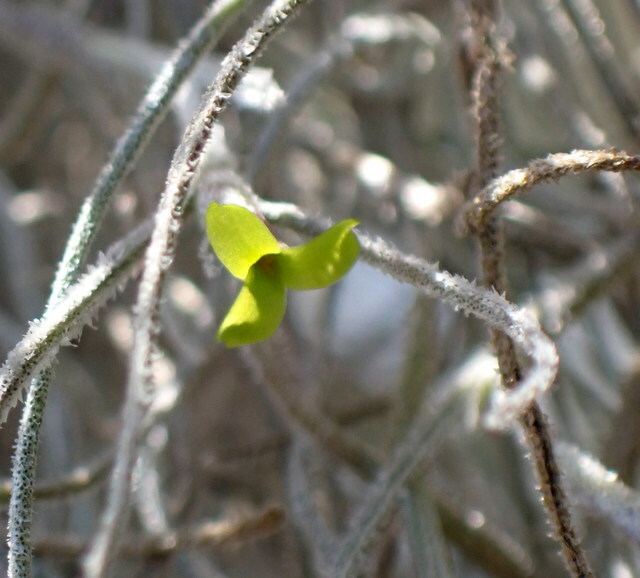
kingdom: Plantae
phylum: Tracheophyta
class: Liliopsida
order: Poales
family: Bromeliaceae
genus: Tillandsia
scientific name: Tillandsia usneoides
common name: Spanish moss
